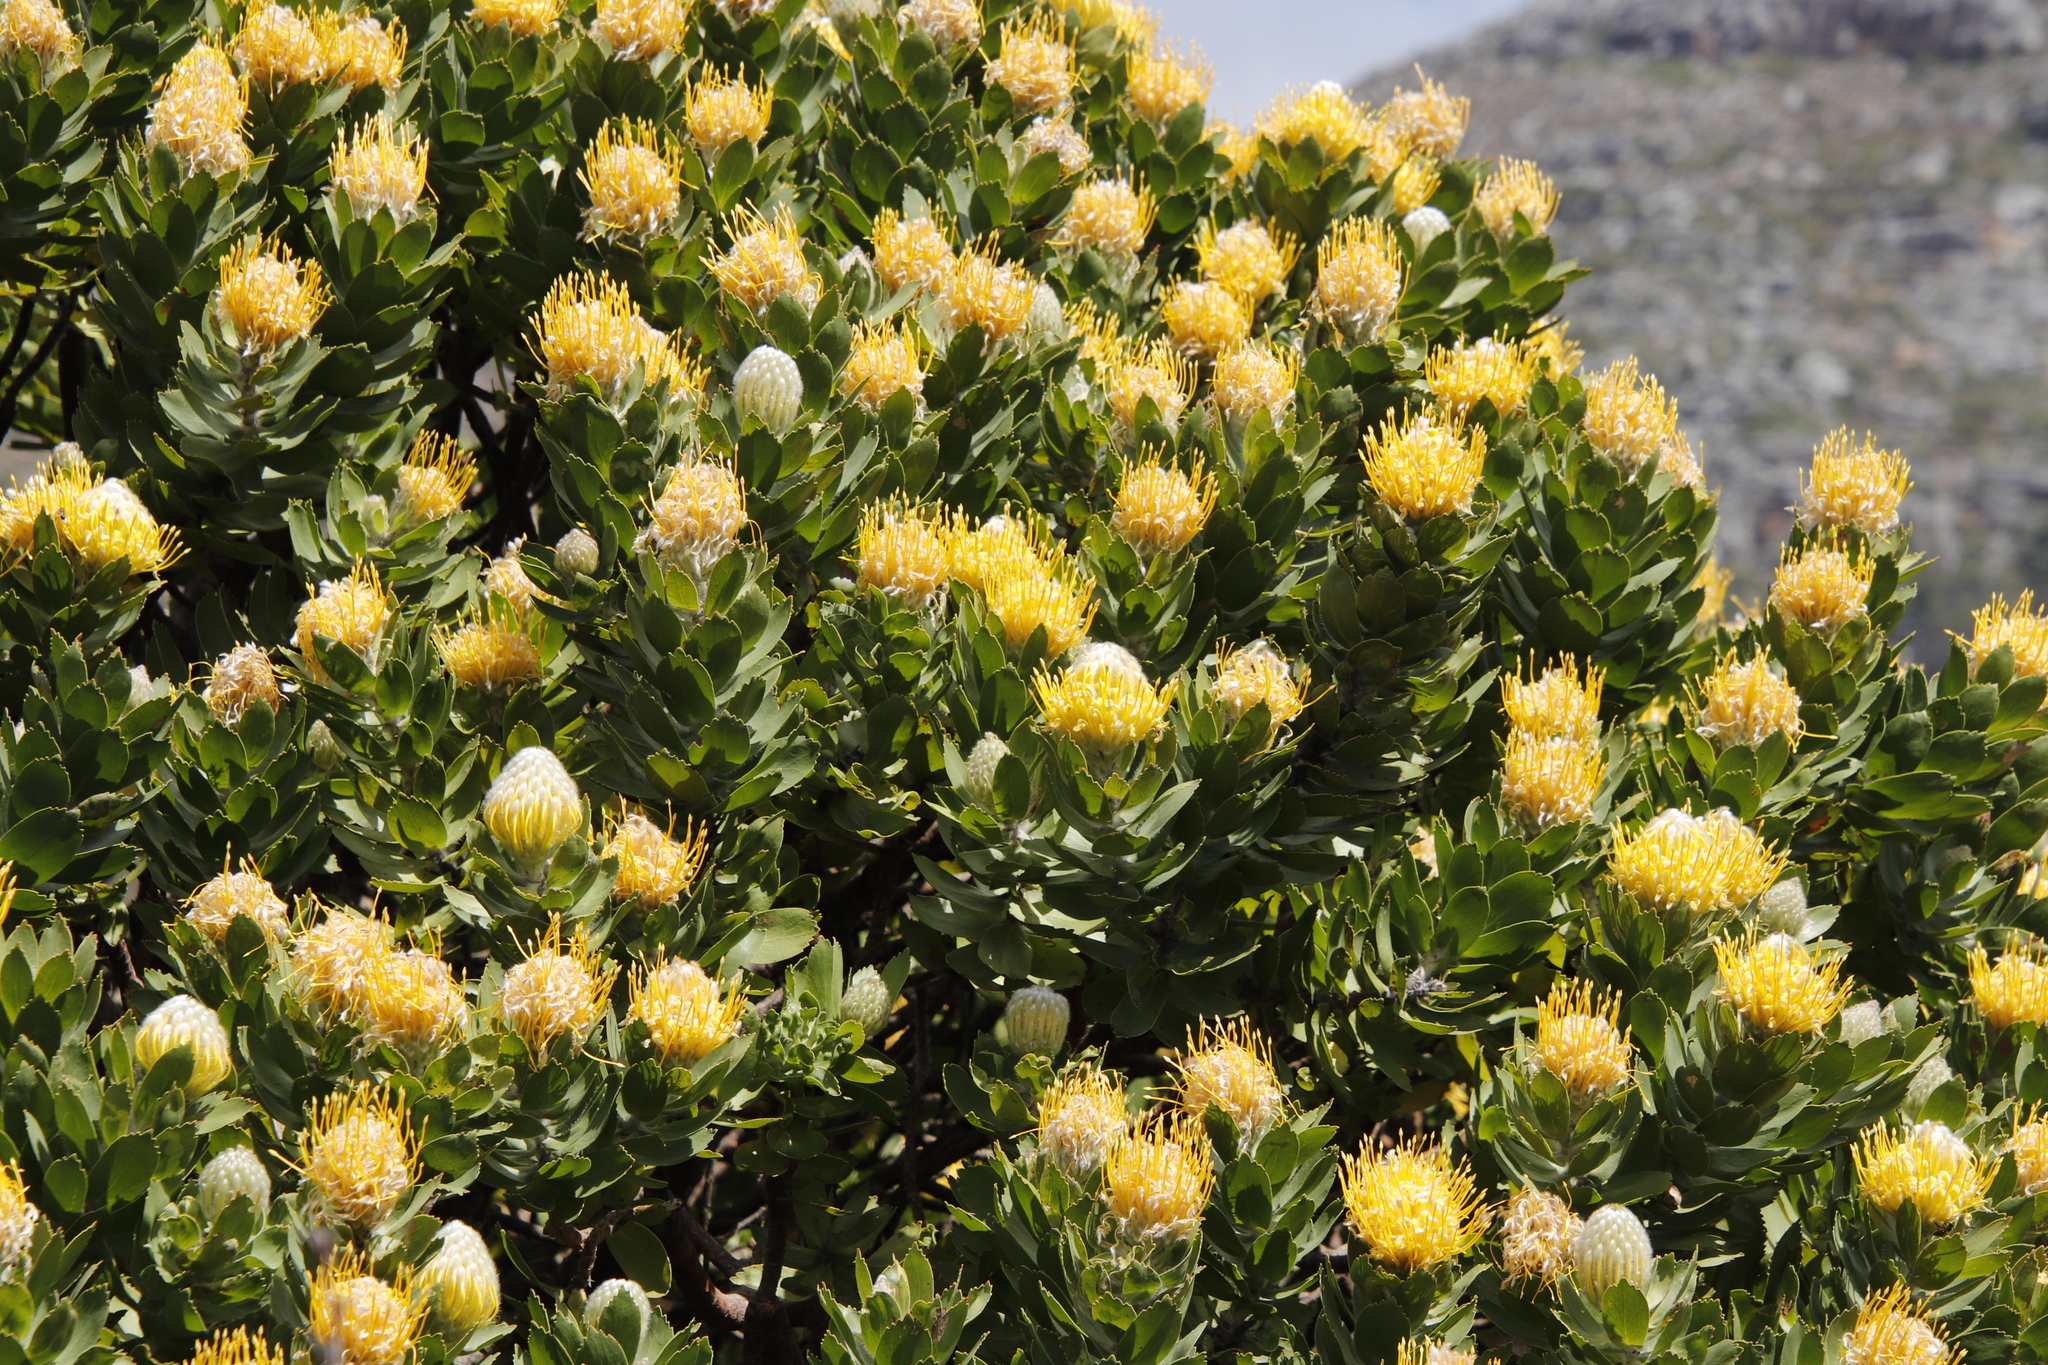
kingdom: Plantae
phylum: Tracheophyta
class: Magnoliopsida
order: Proteales
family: Proteaceae
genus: Leucospermum
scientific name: Leucospermum conocarpodendron
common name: Tree pincushion
